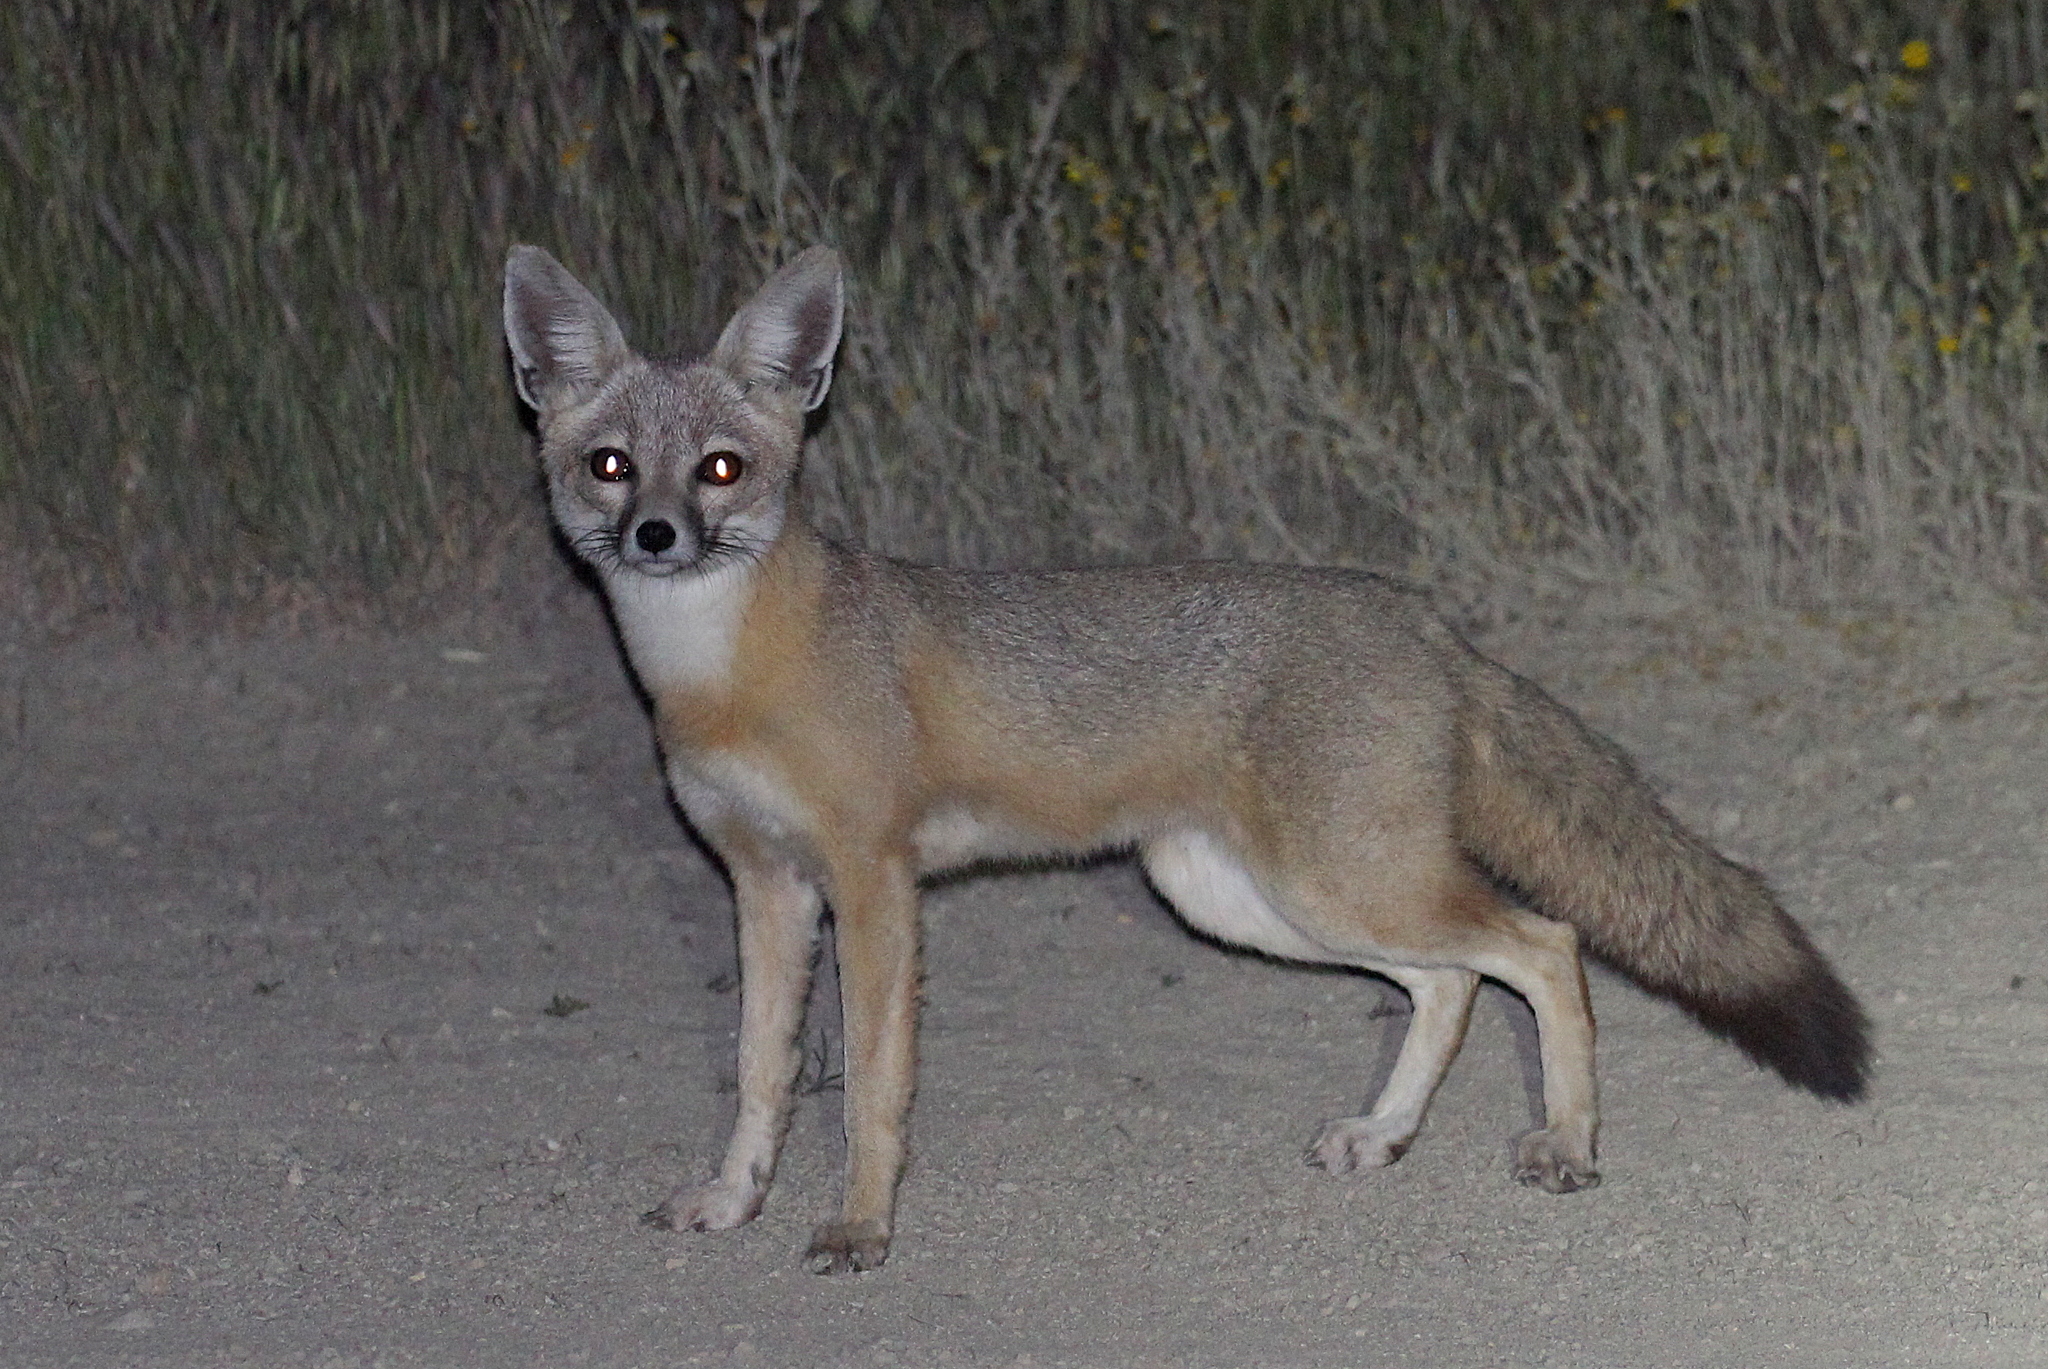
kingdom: Animalia
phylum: Chordata
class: Mammalia
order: Carnivora
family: Canidae
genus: Vulpes
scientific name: Vulpes macrotis
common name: Kit fox
